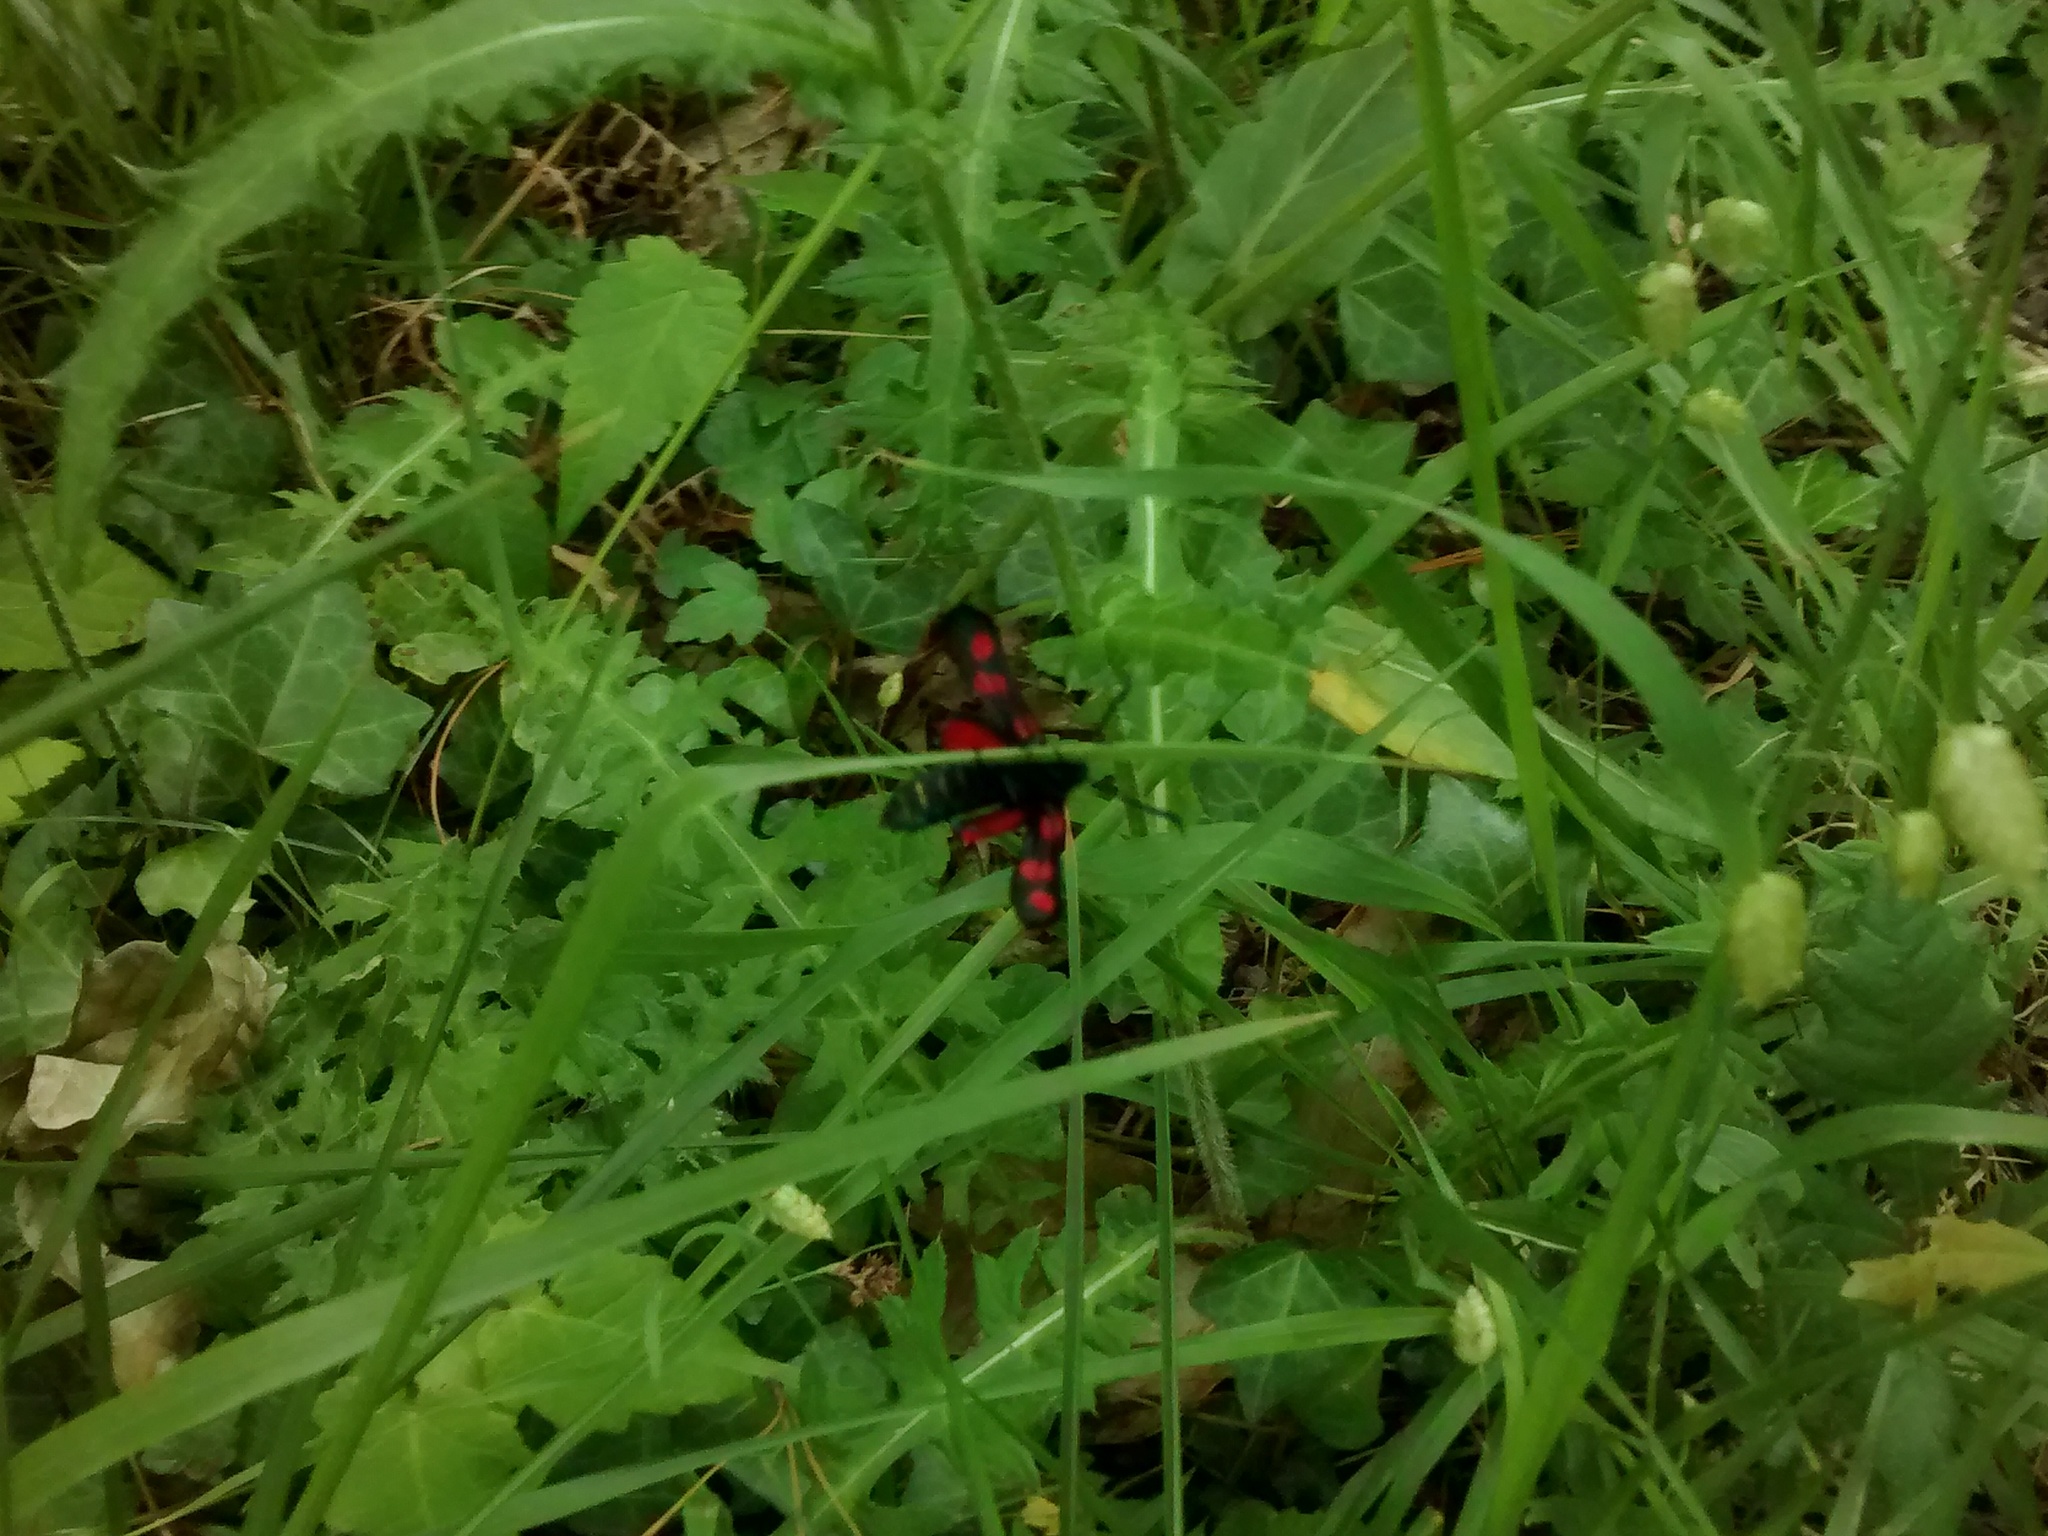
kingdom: Animalia
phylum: Arthropoda
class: Insecta
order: Lepidoptera
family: Zygaenidae
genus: Zygaena
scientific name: Zygaena trifolii
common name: Five-spot burnet
